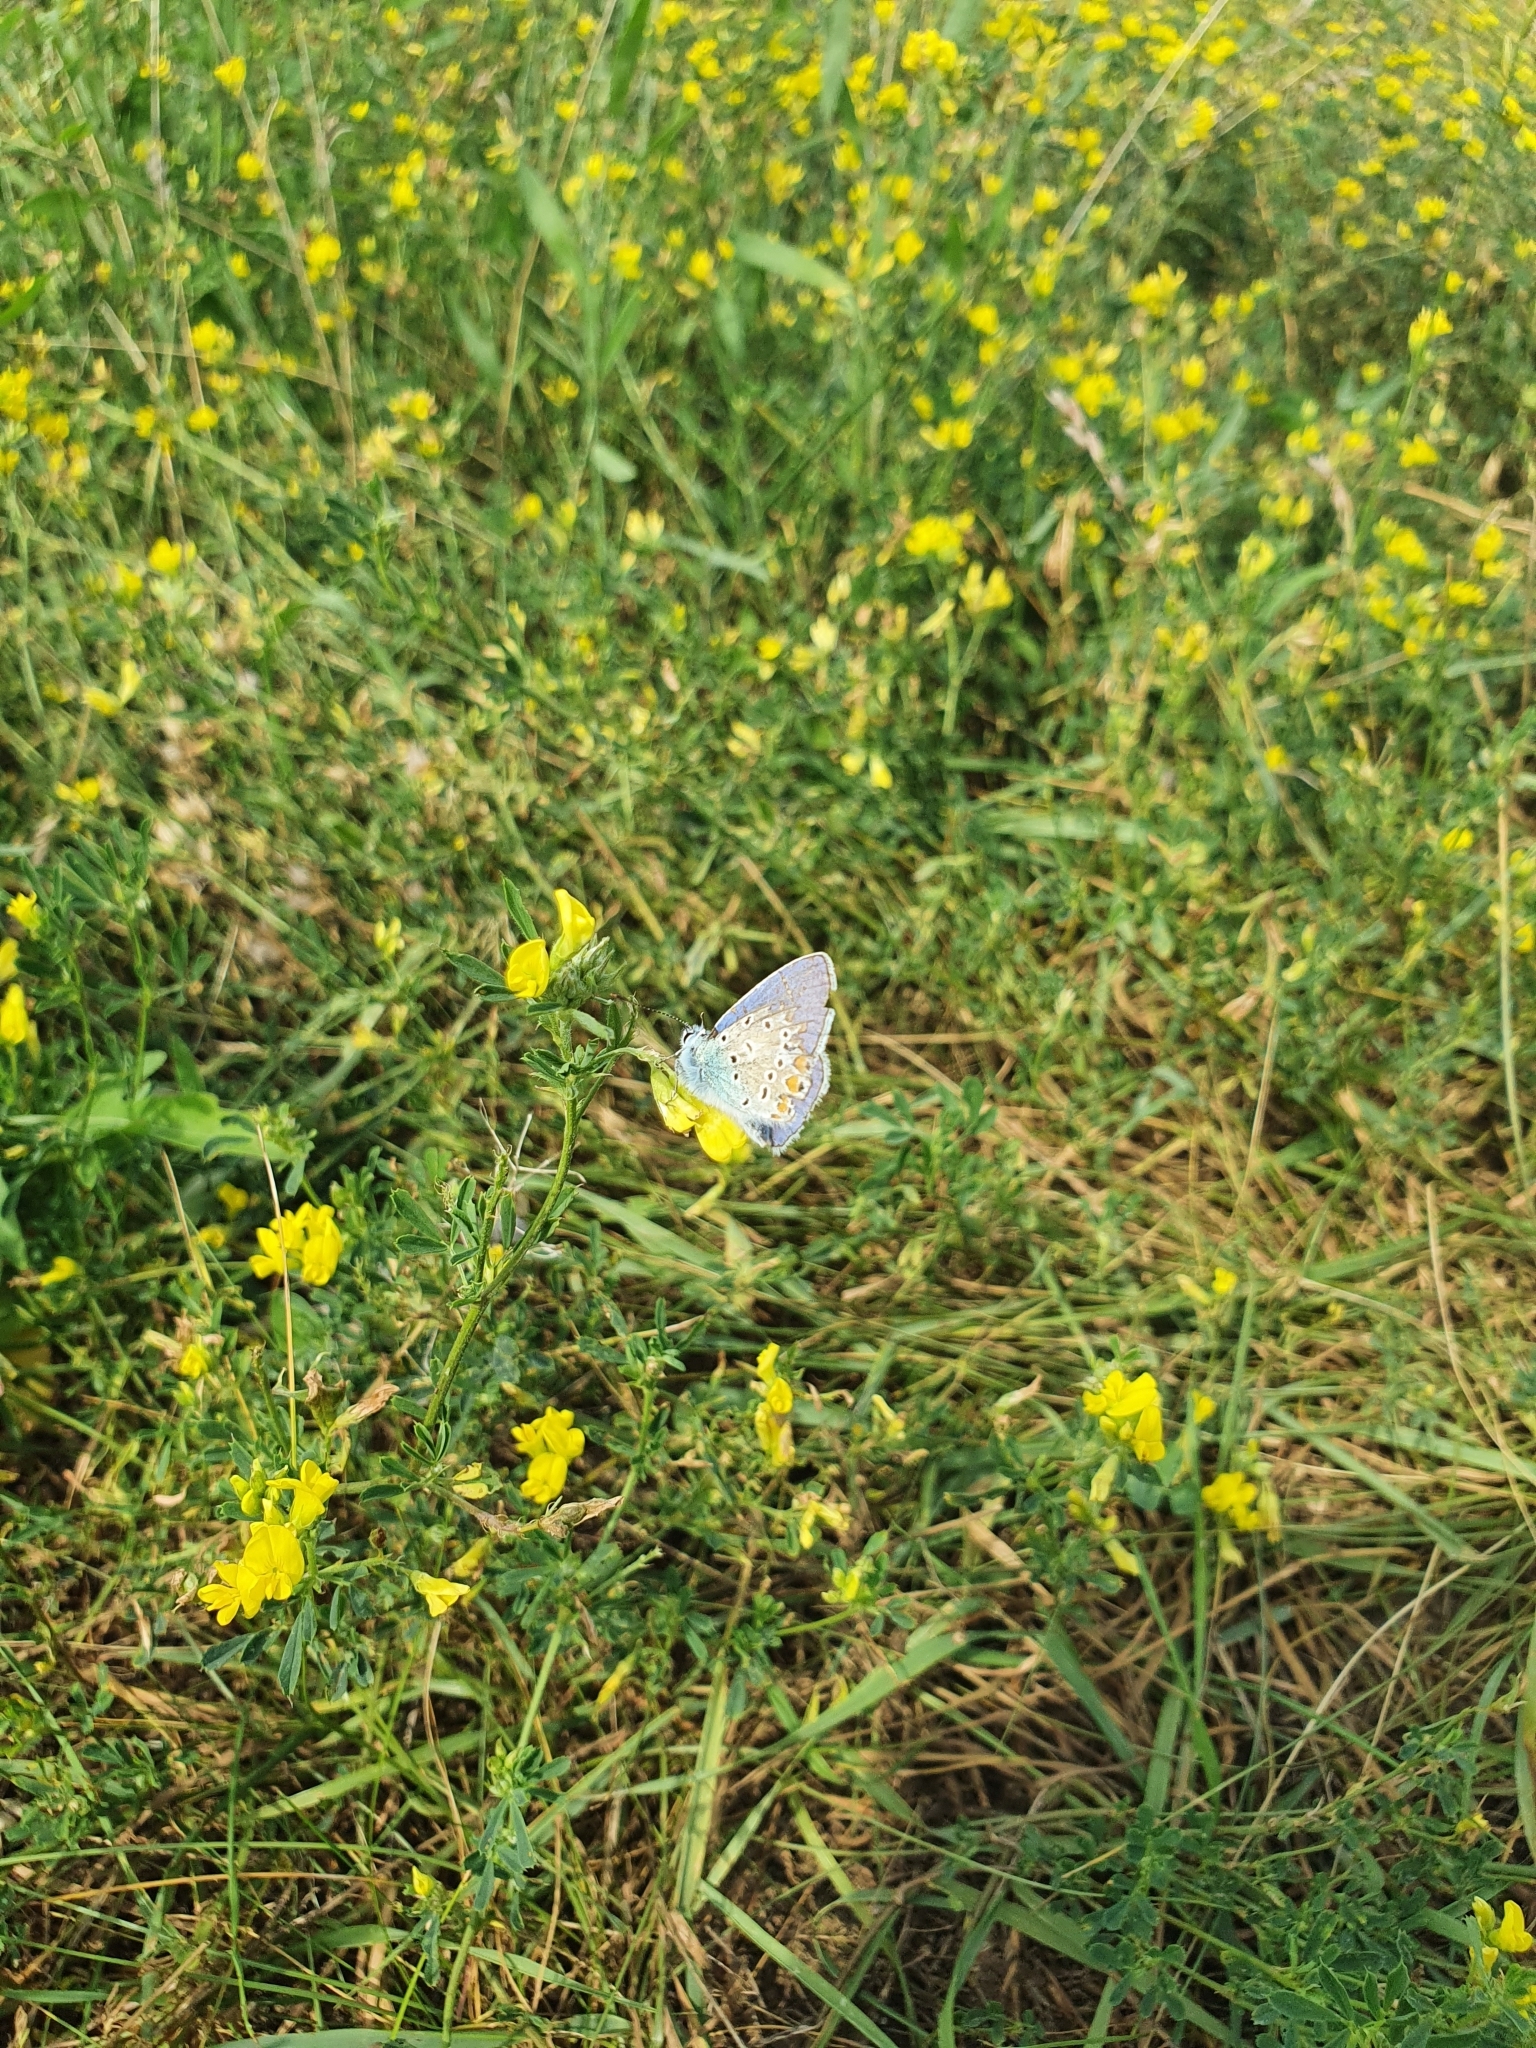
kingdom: Plantae
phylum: Tracheophyta
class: Magnoliopsida
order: Fabales
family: Fabaceae
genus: Lotus
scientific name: Lotus corniculatus
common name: Common bird's-foot-trefoil
